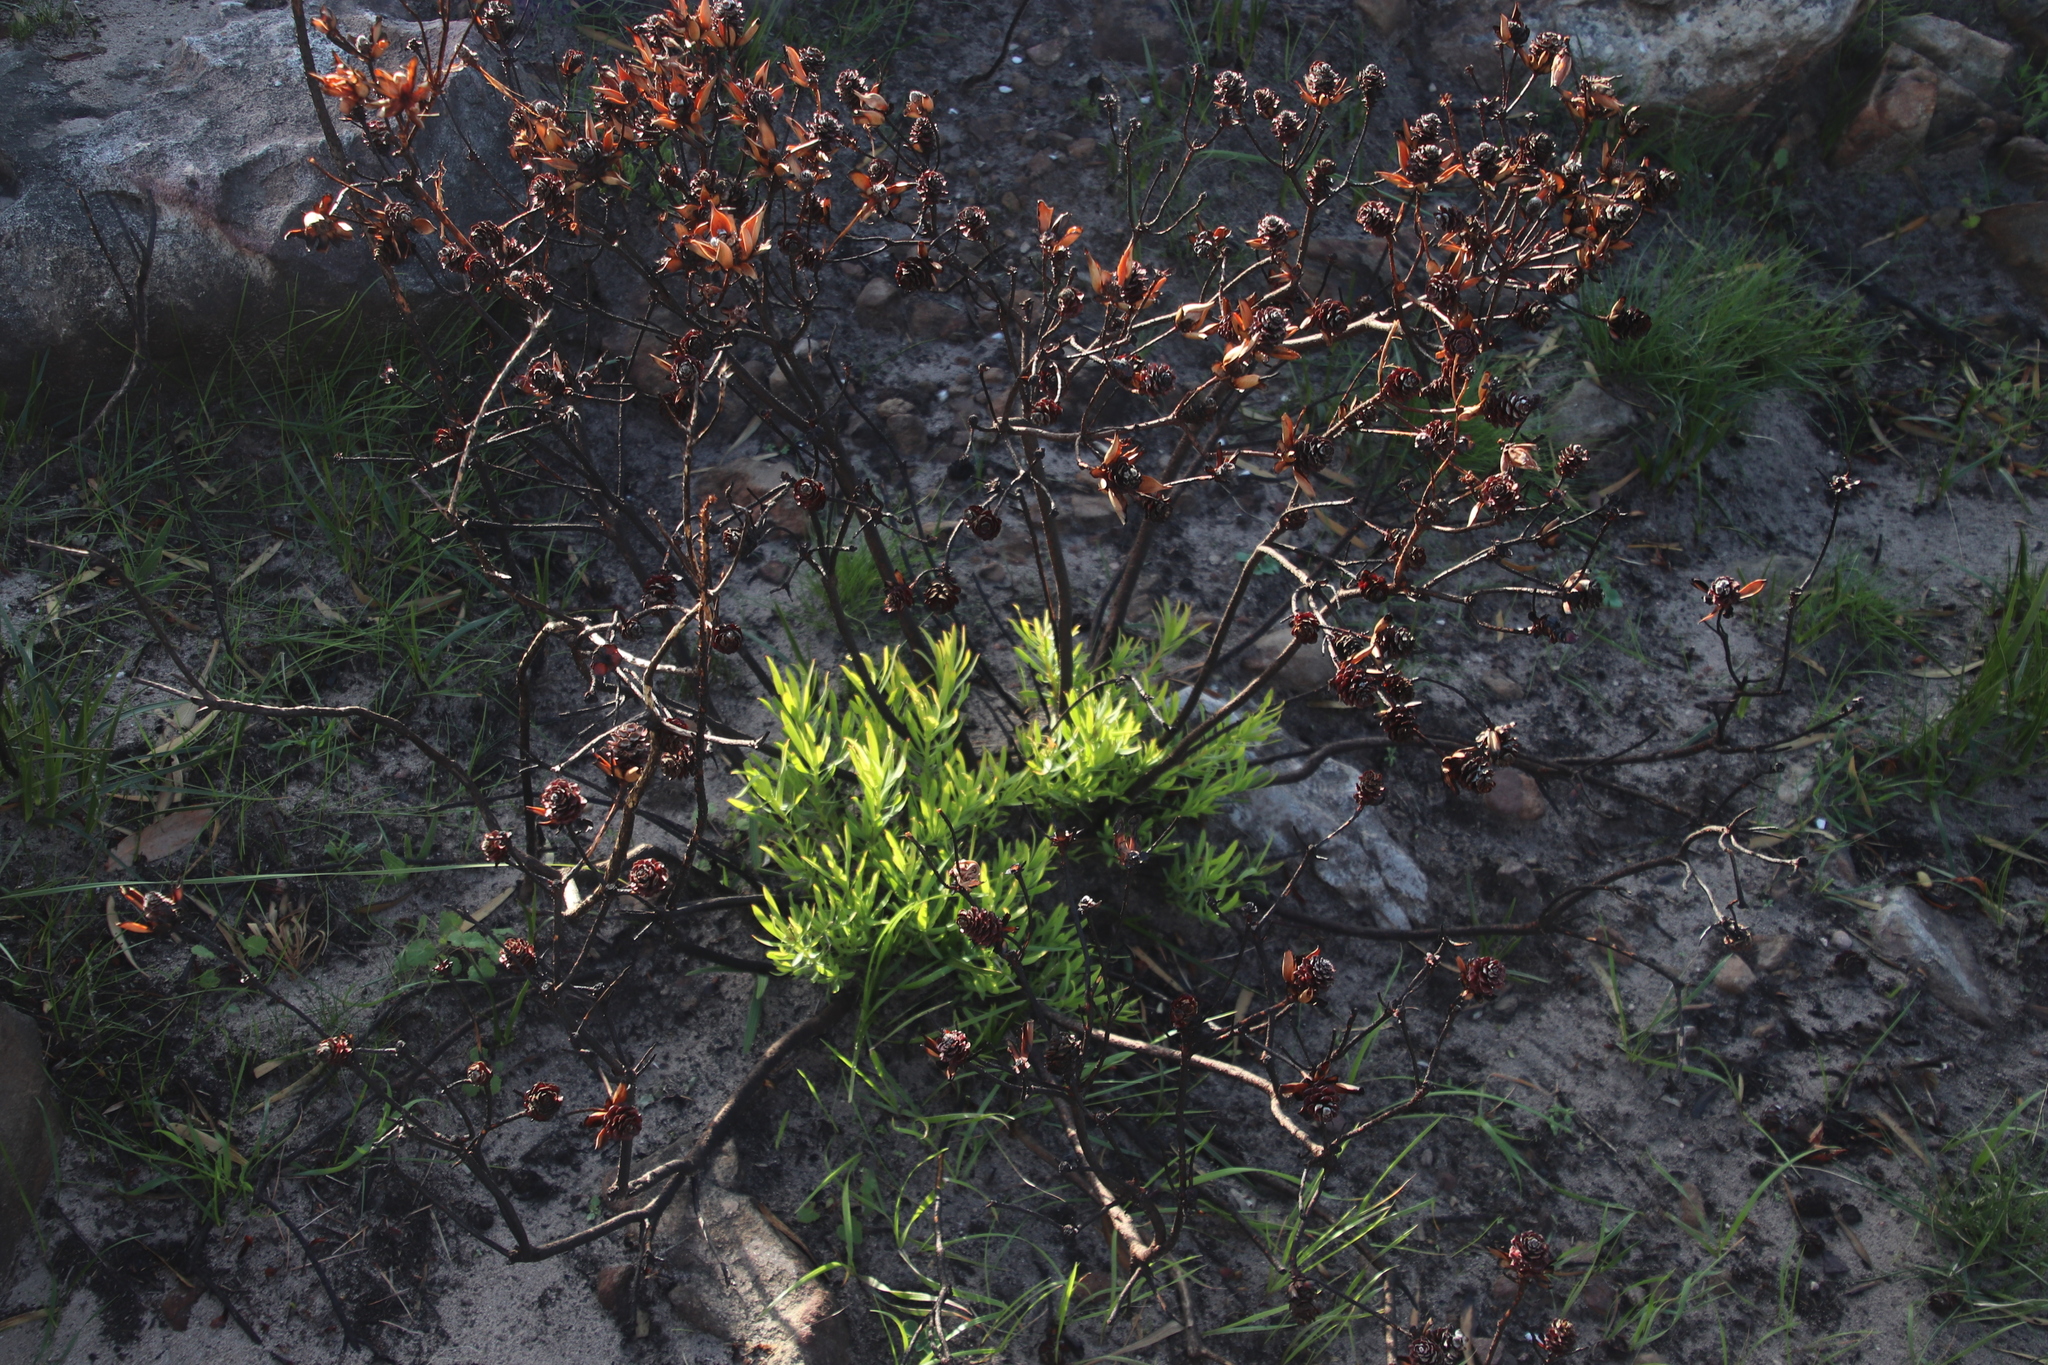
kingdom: Plantae
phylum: Tracheophyta
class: Magnoliopsida
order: Proteales
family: Proteaceae
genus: Leucadendron
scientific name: Leucadendron salignum
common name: Common sunshine conebush
